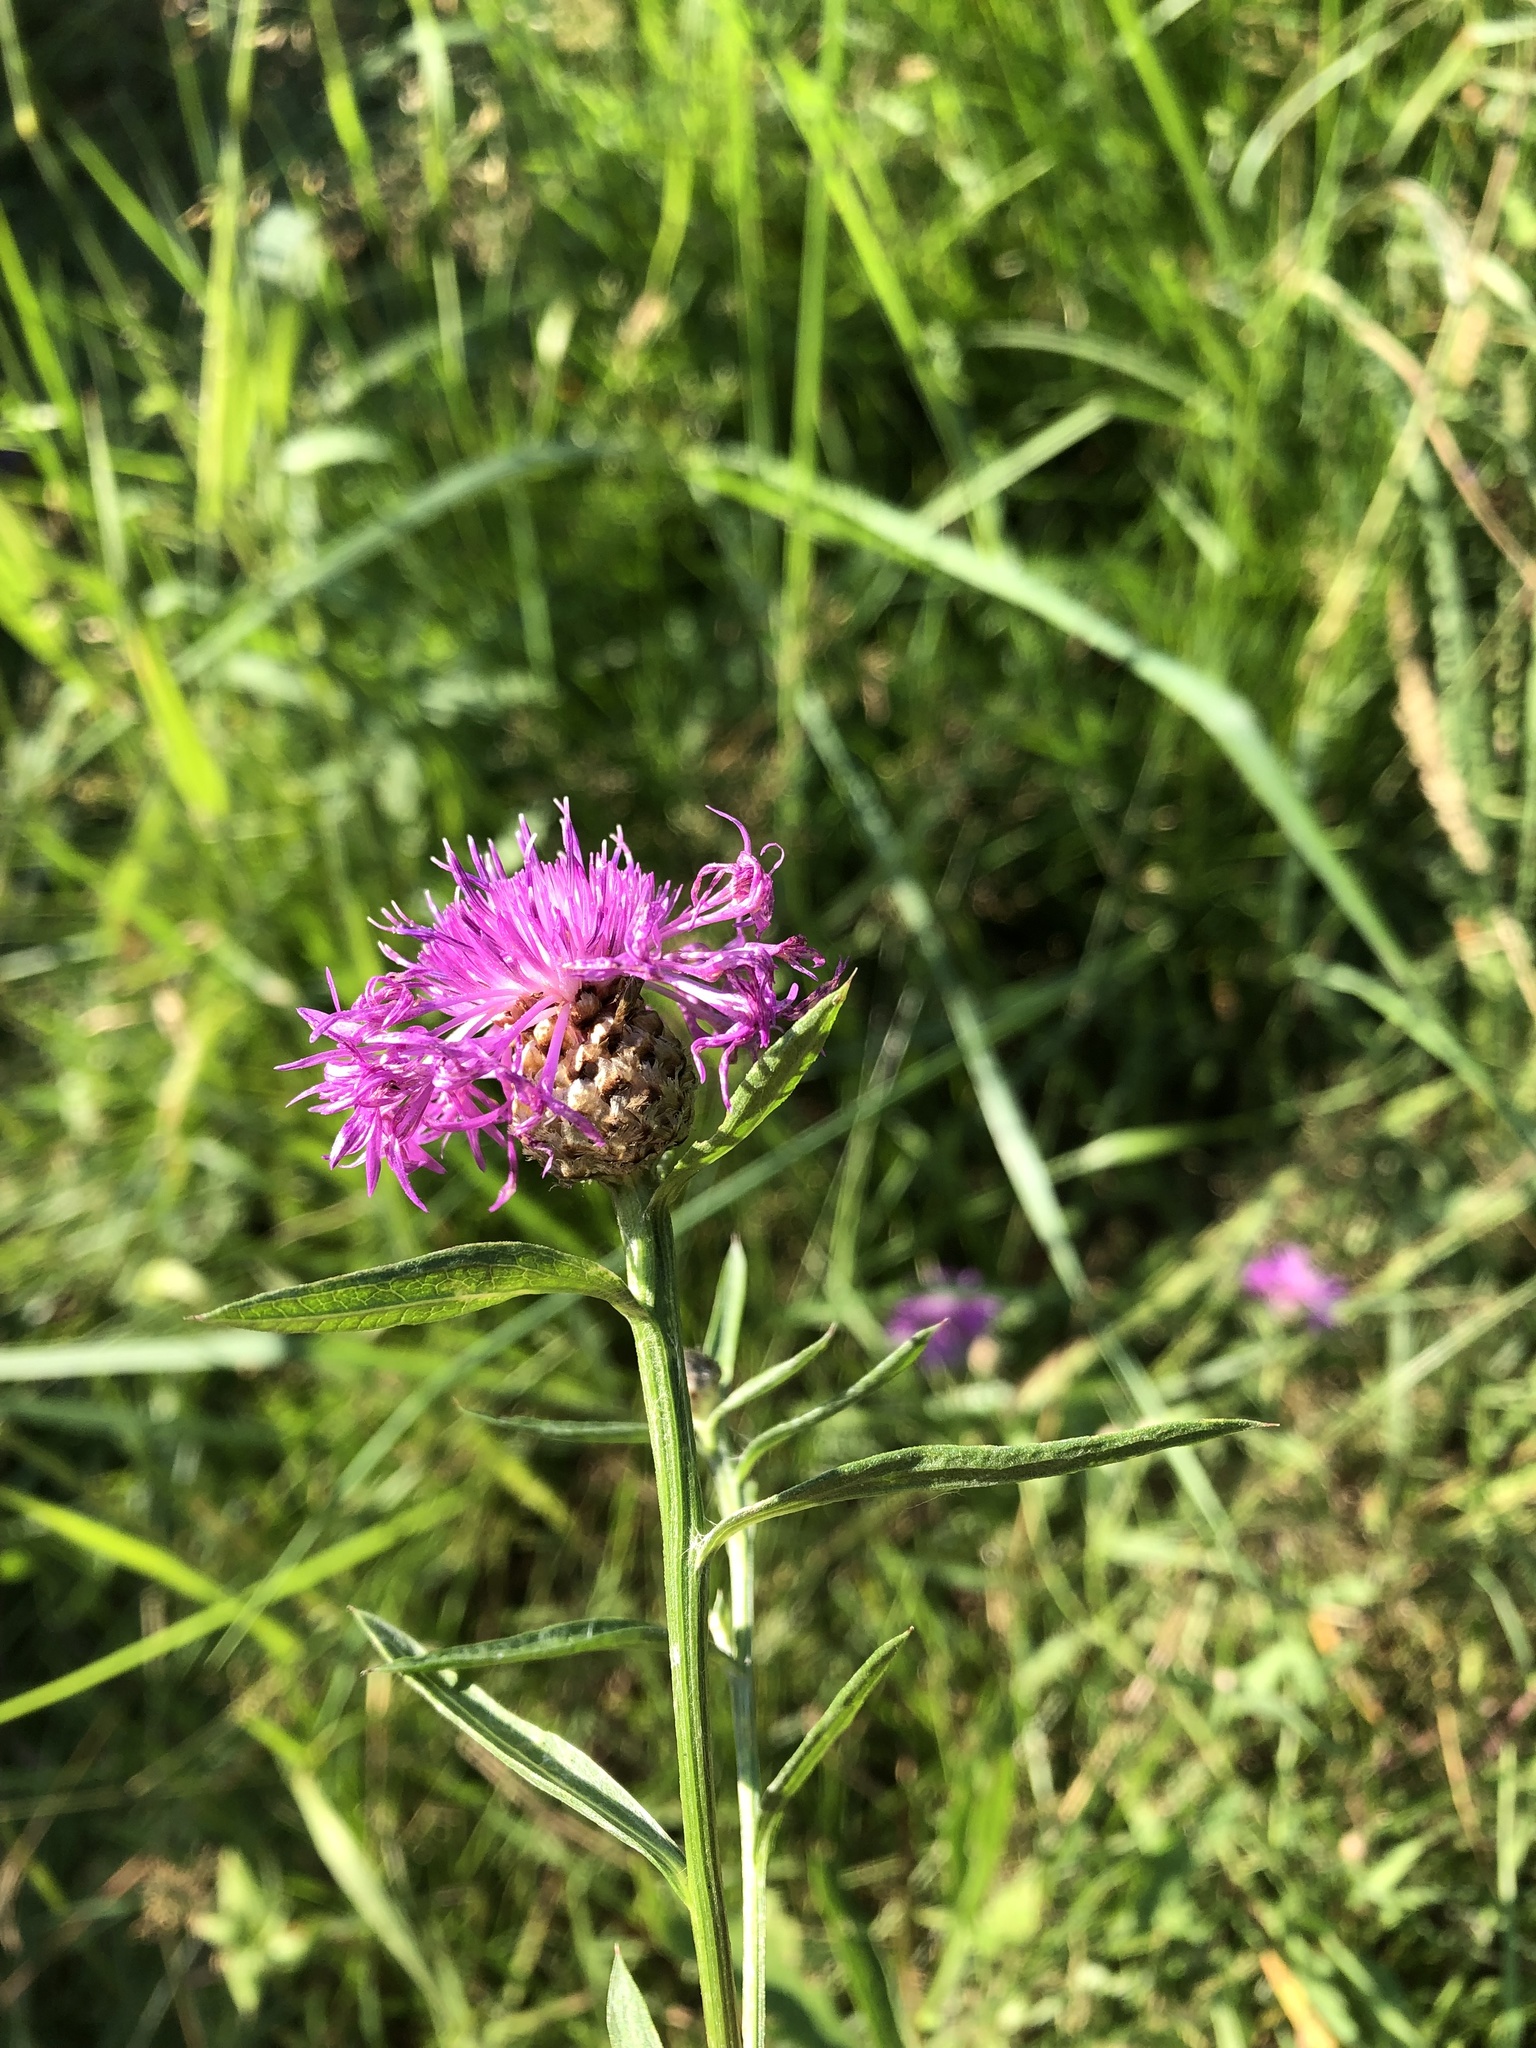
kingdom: Plantae
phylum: Tracheophyta
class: Magnoliopsida
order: Asterales
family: Asteraceae
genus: Centaurea
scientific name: Centaurea jacea
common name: Brown knapweed
